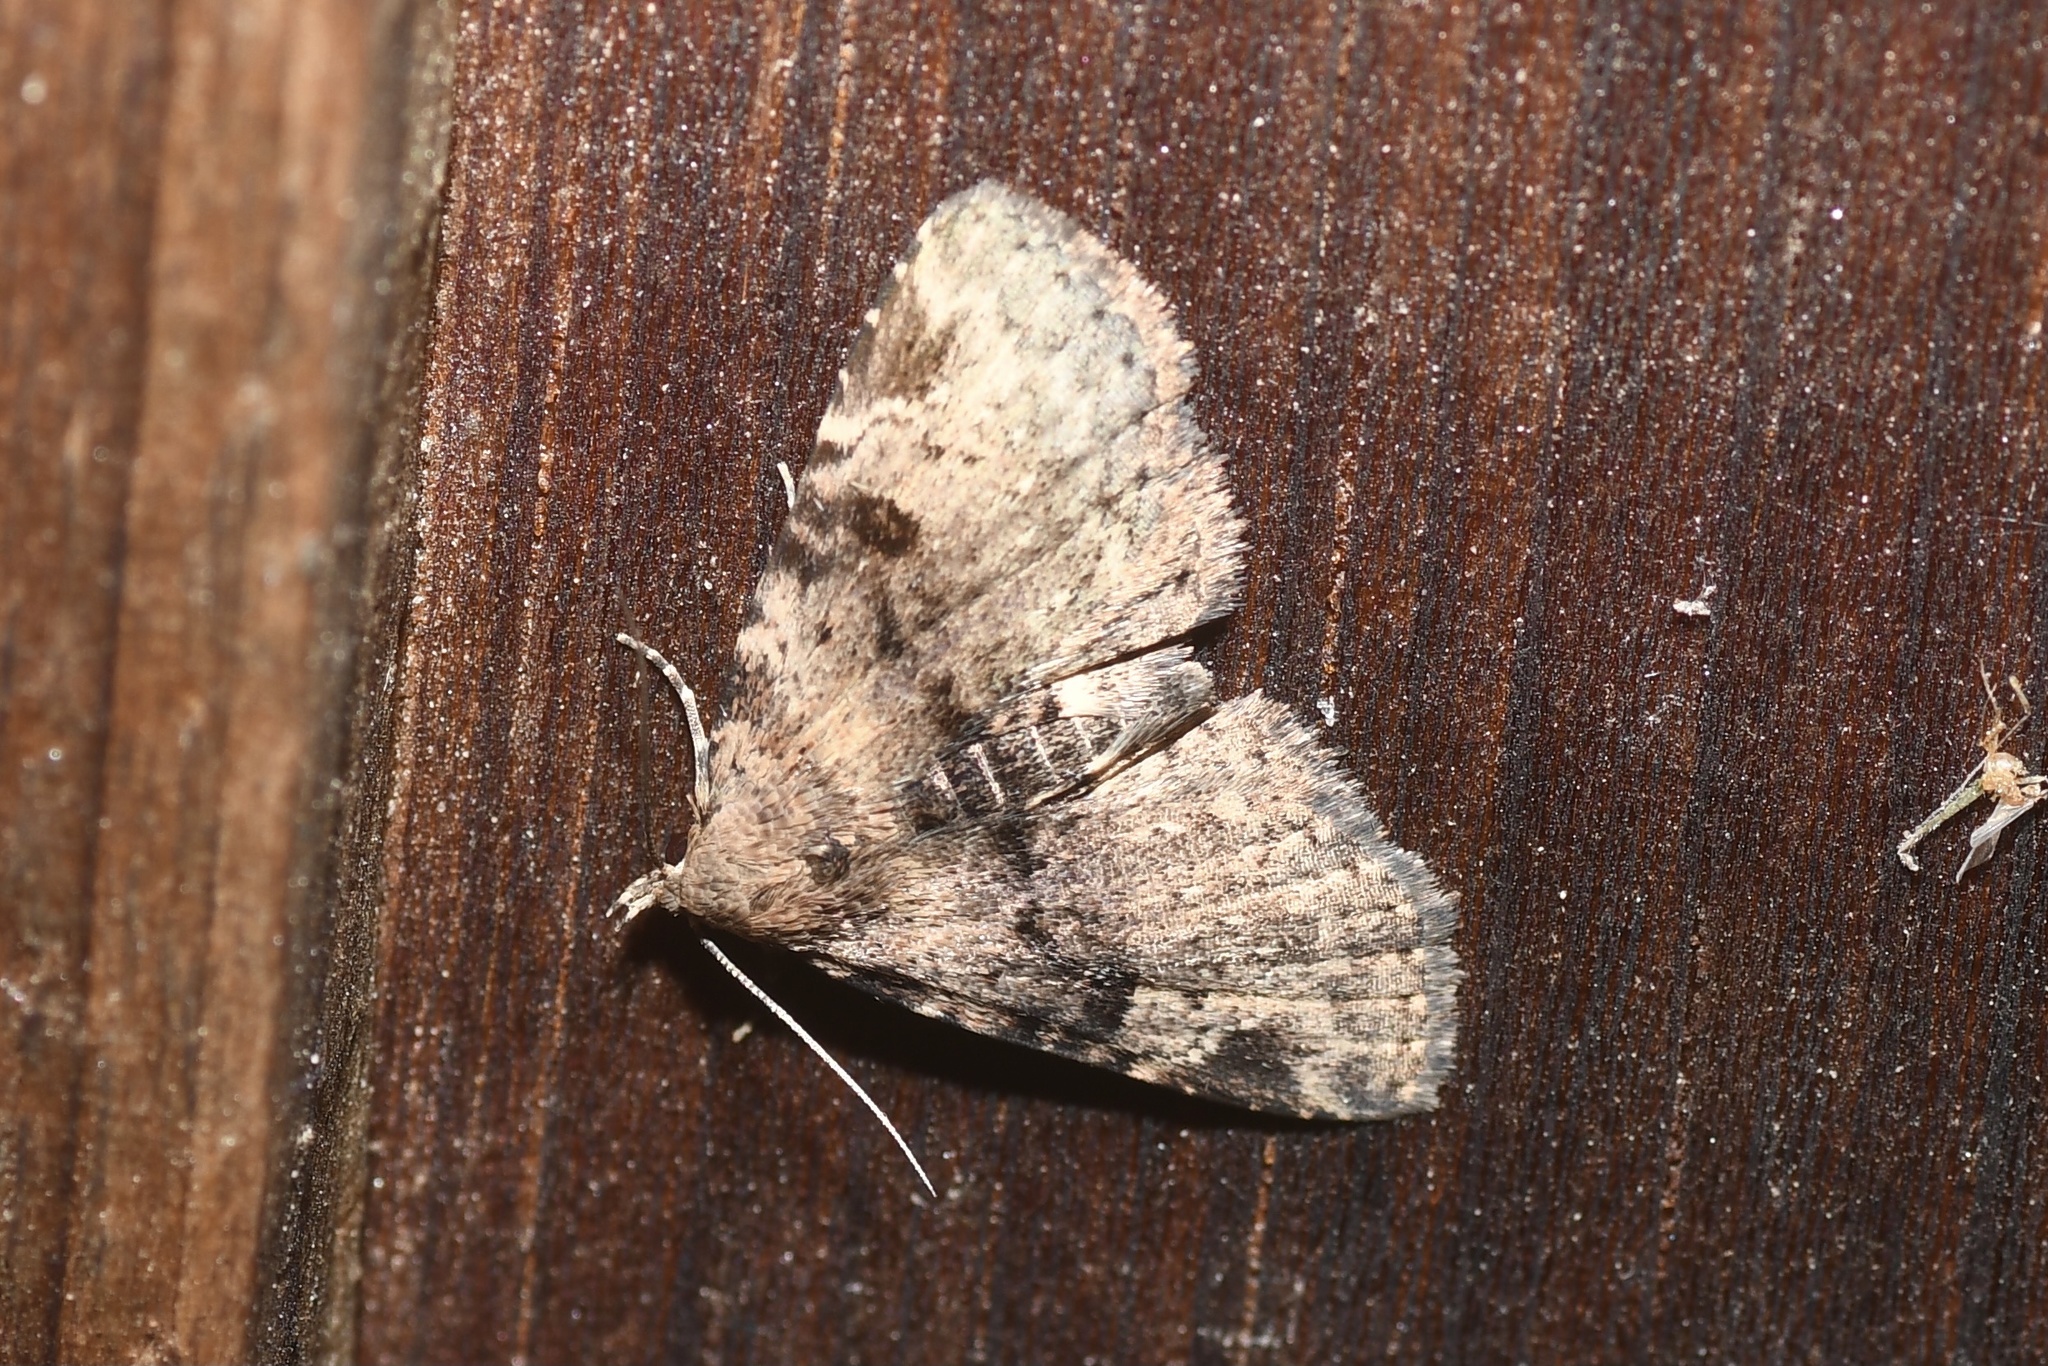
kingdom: Animalia
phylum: Arthropoda
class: Insecta
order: Lepidoptera
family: Erebidae
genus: Metalectra
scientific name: Metalectra quadrisignata
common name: Four-spotted fungus moth
